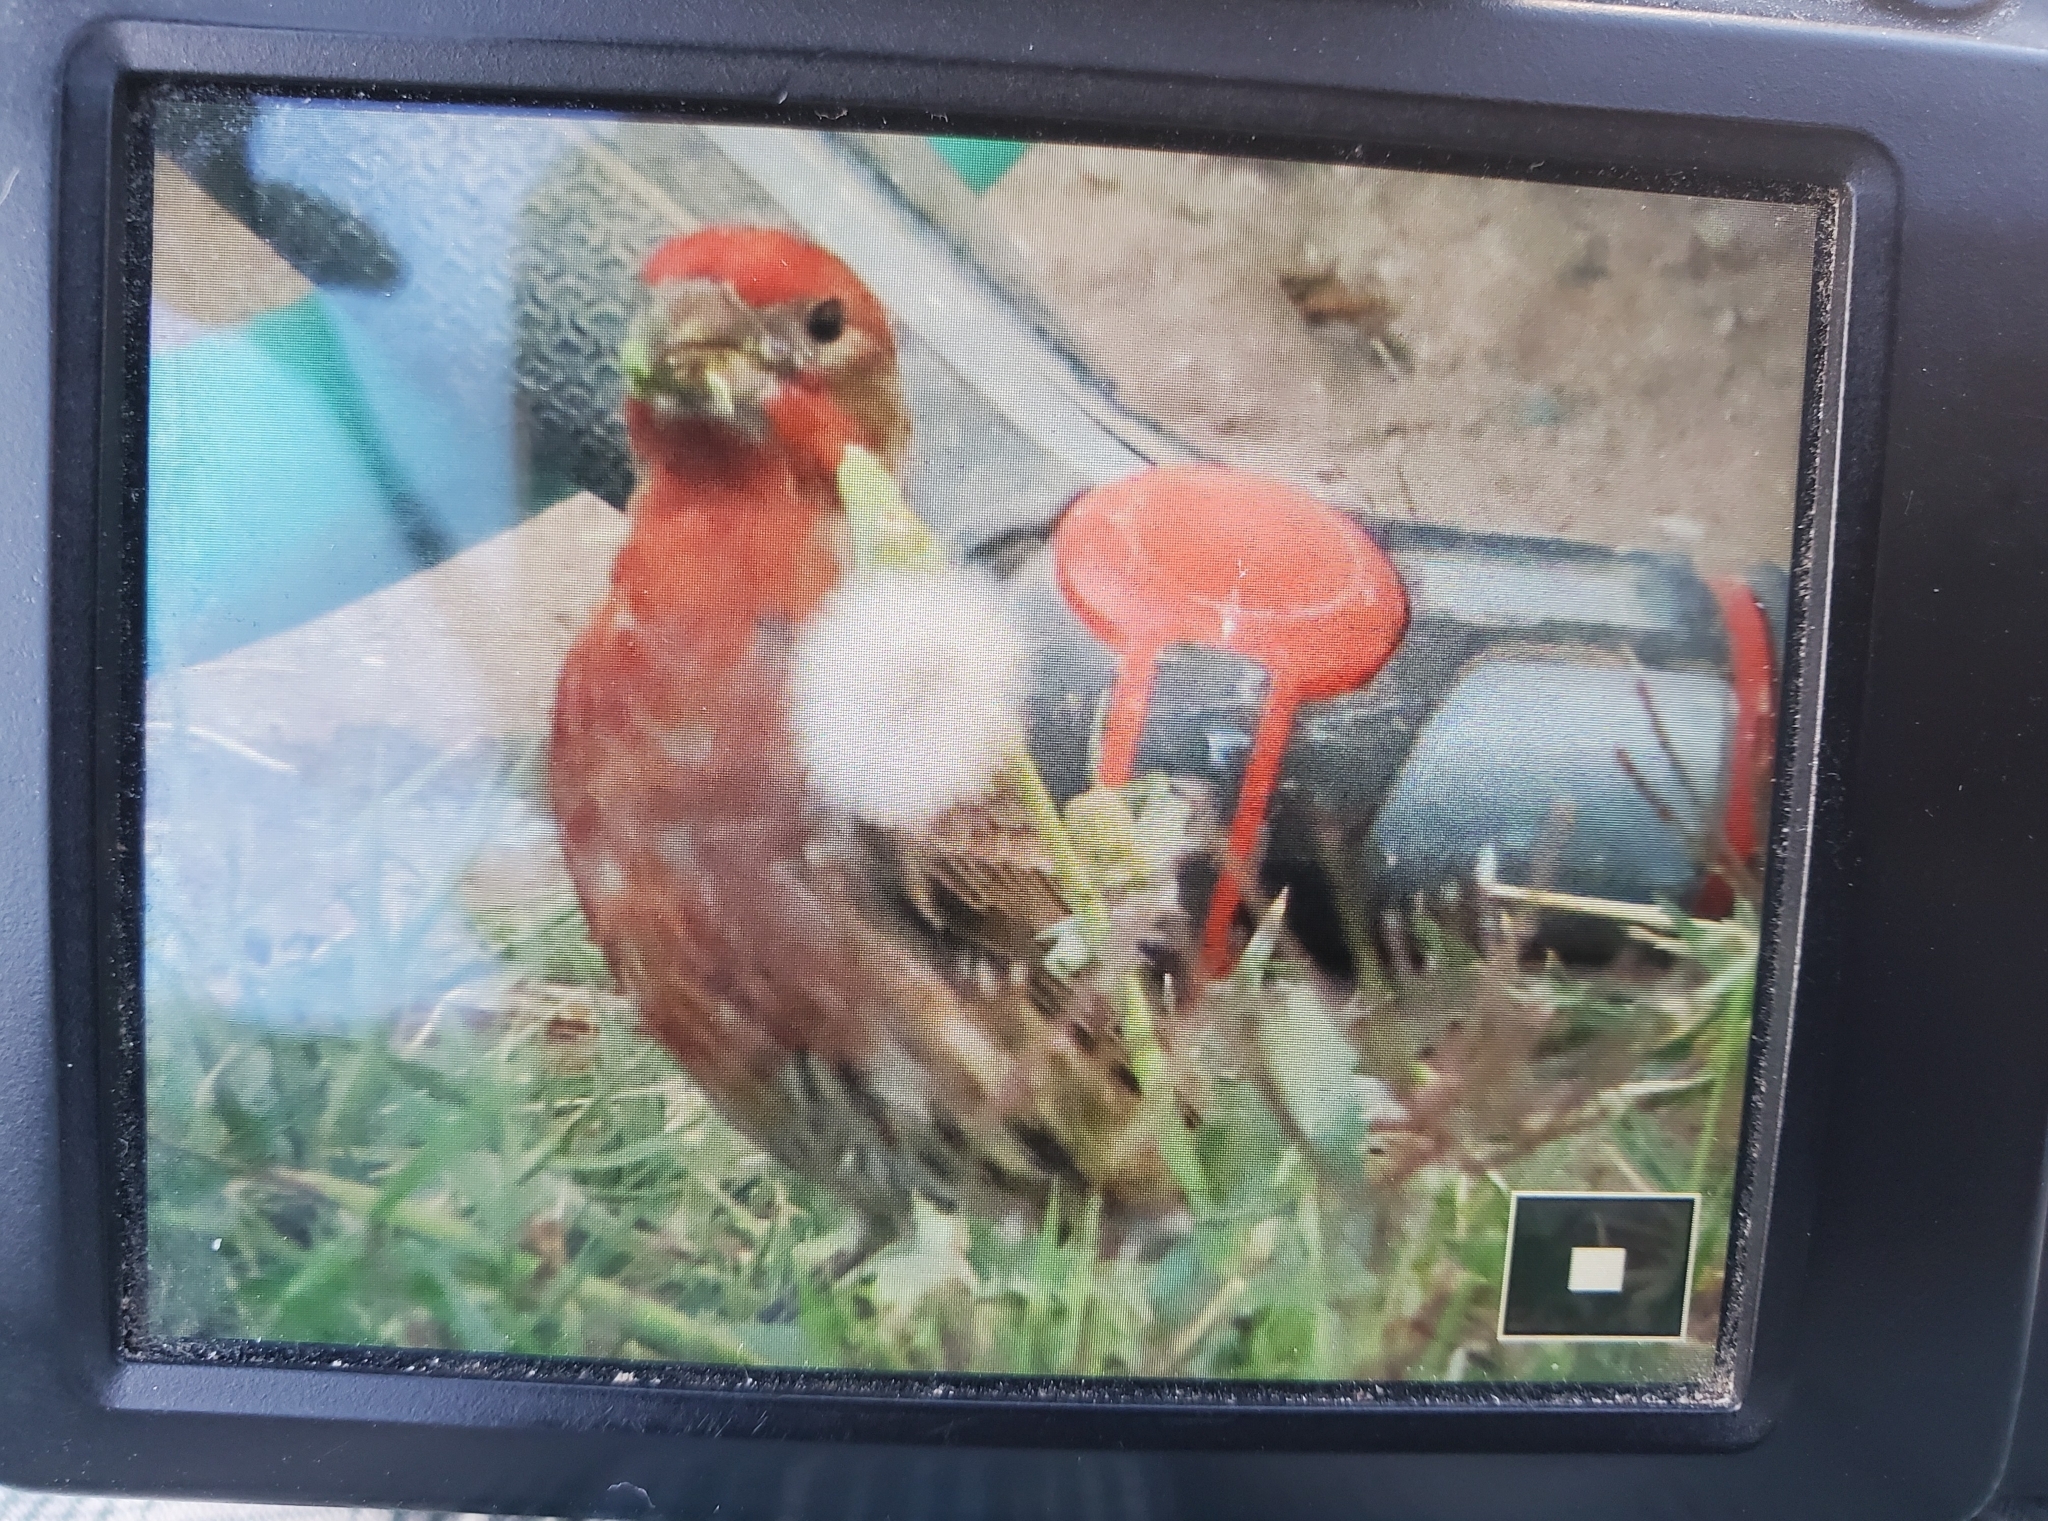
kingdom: Animalia
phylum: Chordata
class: Aves
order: Passeriformes
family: Fringillidae
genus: Haemorhous
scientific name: Haemorhous mexicanus
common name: House finch
